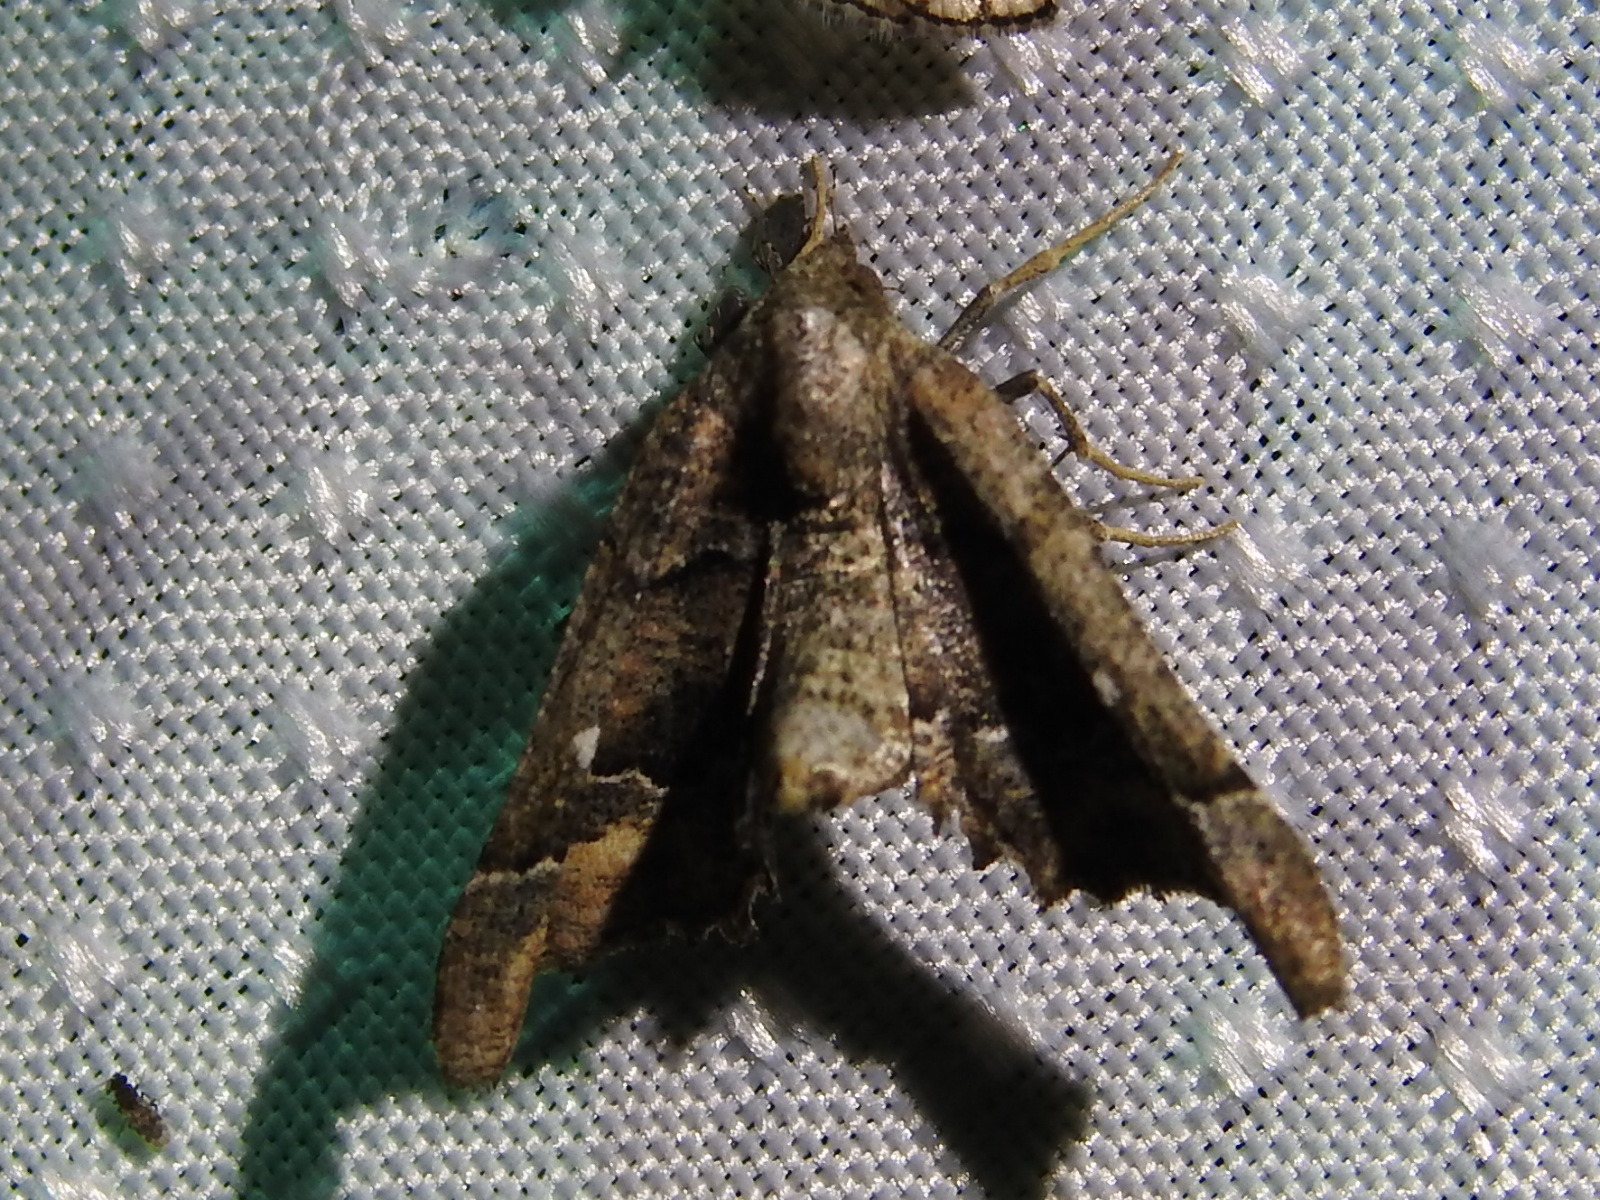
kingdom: Animalia
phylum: Arthropoda
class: Insecta
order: Lepidoptera
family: Geometridae
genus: Pero
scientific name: Pero meskaria
